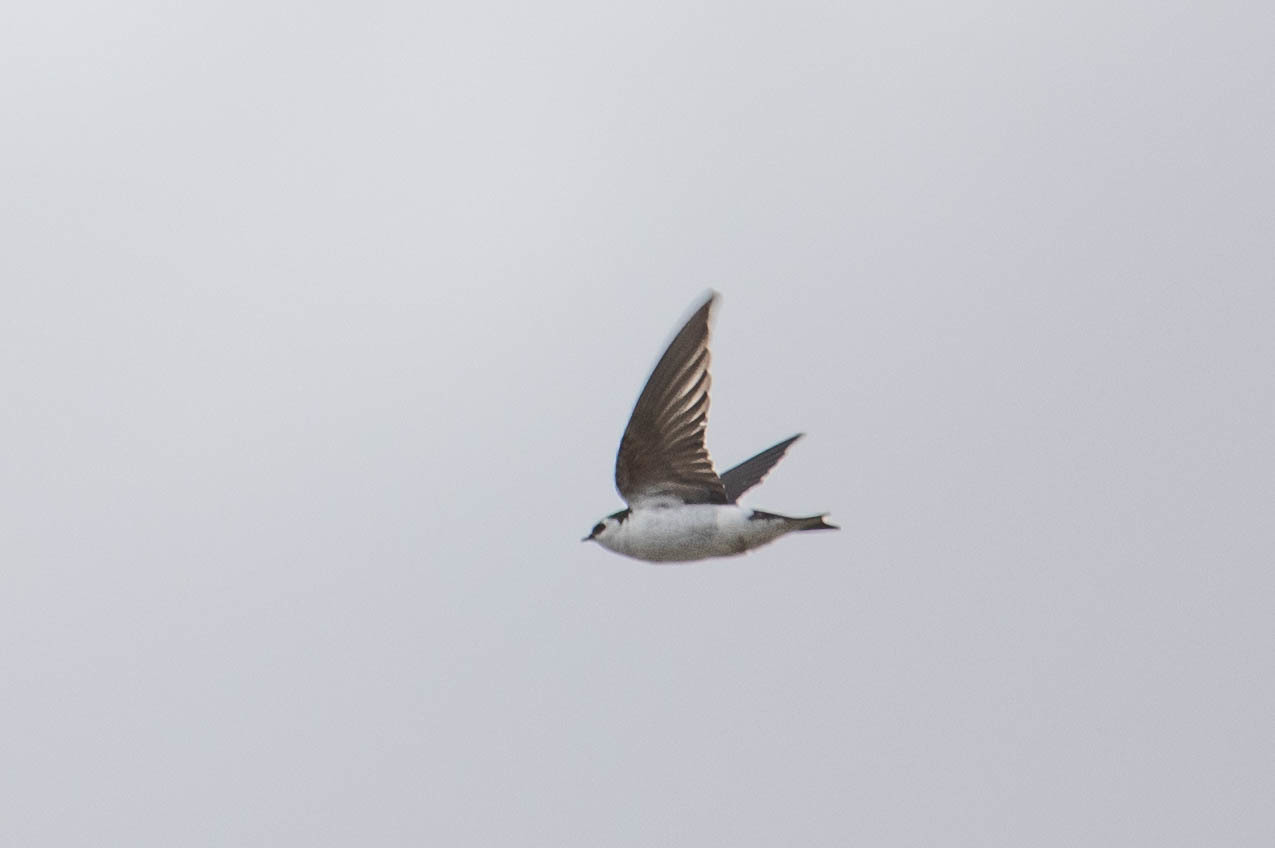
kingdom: Animalia
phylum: Chordata
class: Aves
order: Passeriformes
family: Hirundinidae
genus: Tachycineta
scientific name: Tachycineta thalassina
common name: Violet-green swallow
